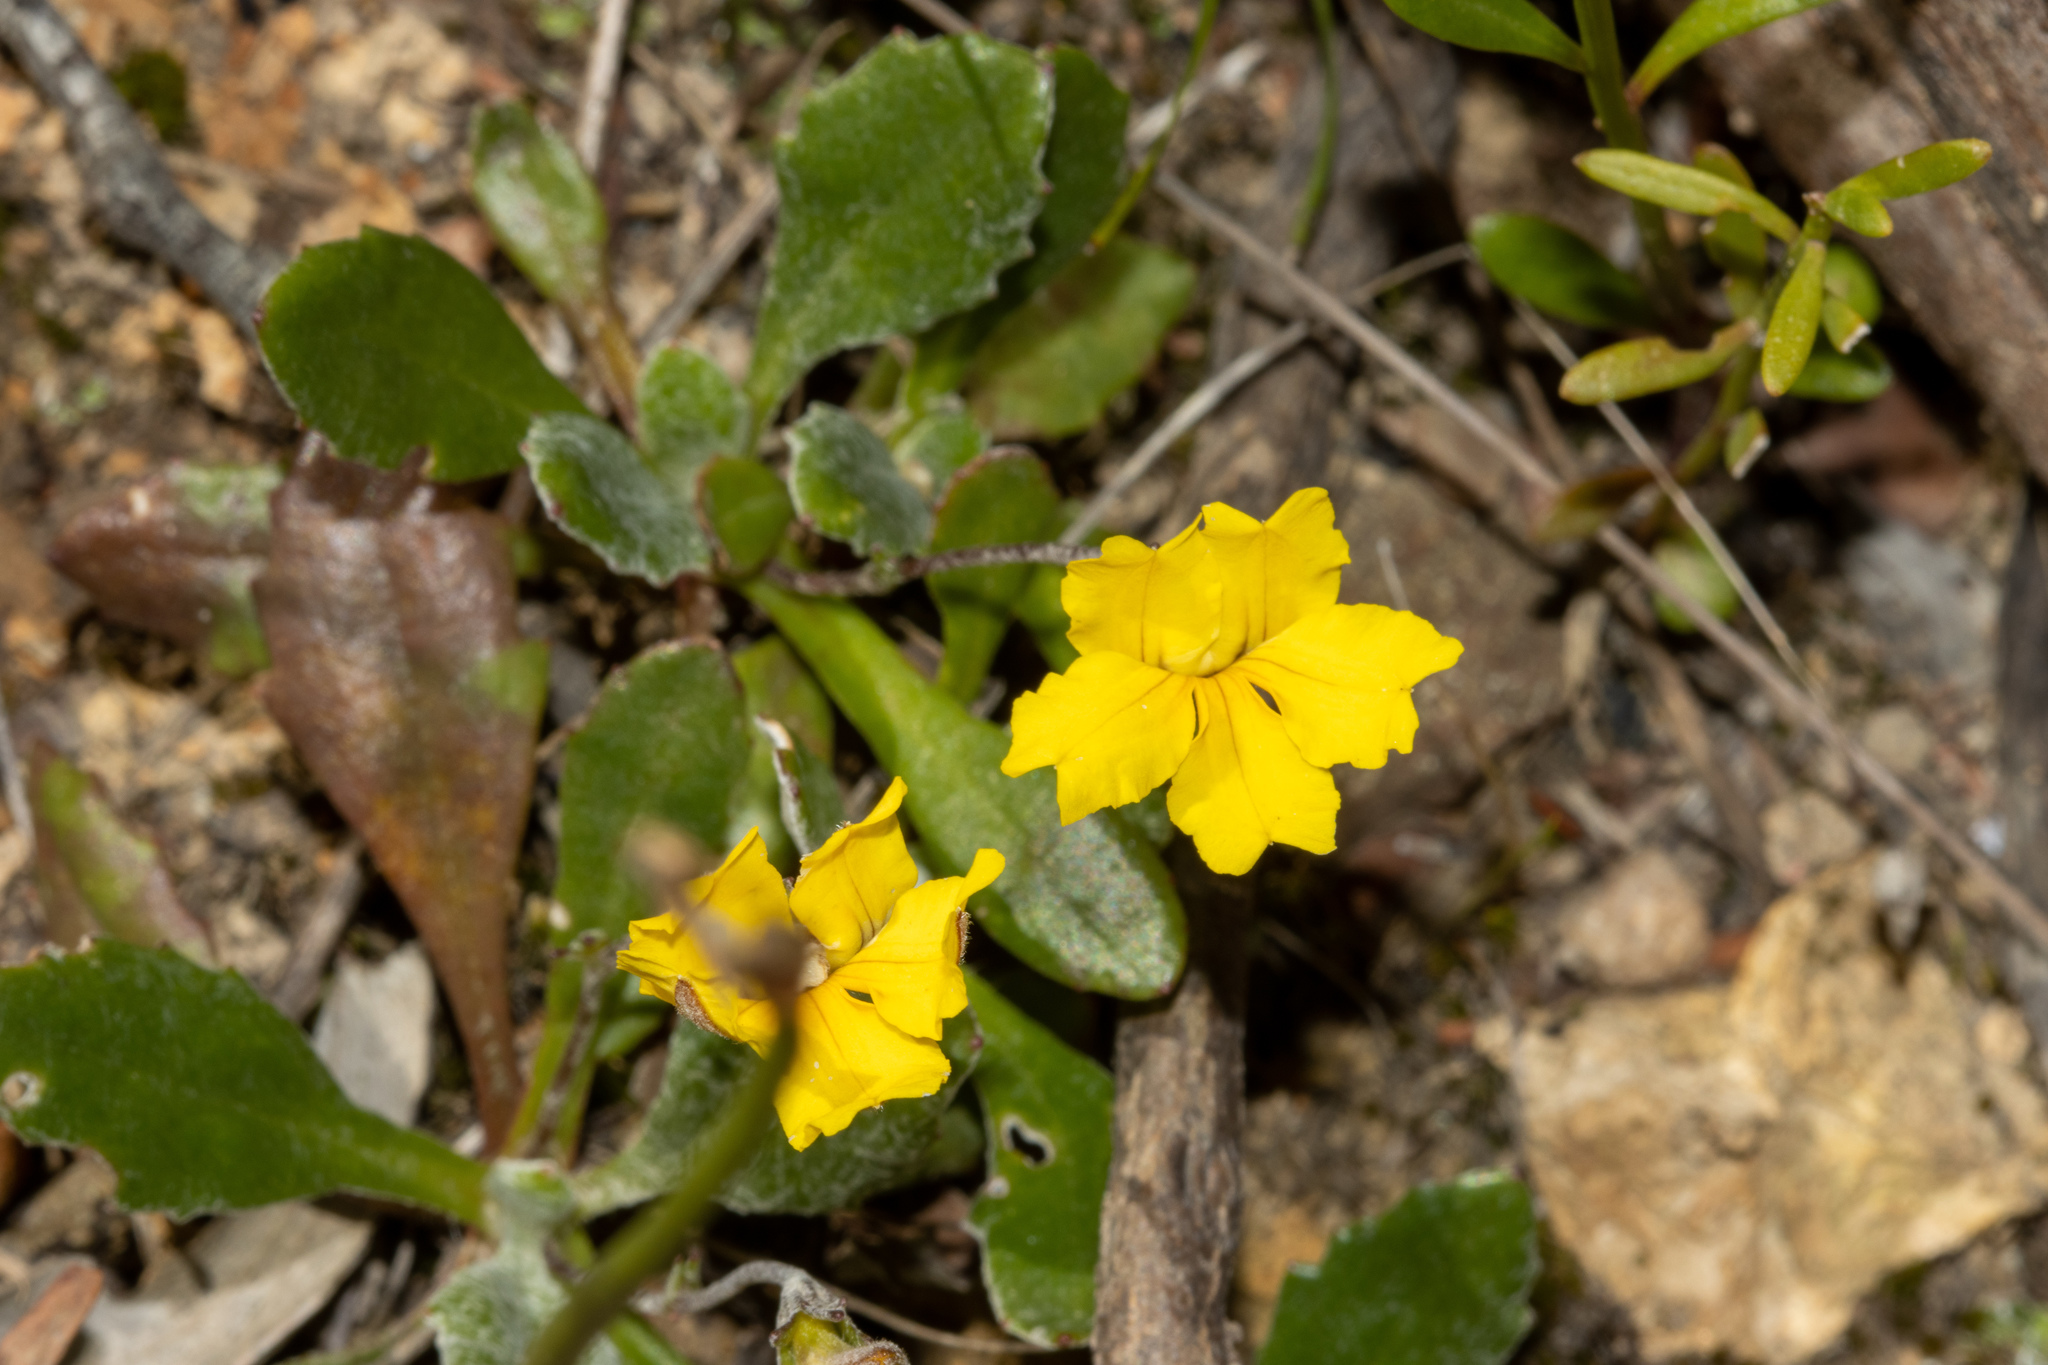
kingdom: Plantae
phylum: Tracheophyta
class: Magnoliopsida
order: Asterales
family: Goodeniaceae
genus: Goodenia
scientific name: Goodenia blackiana
